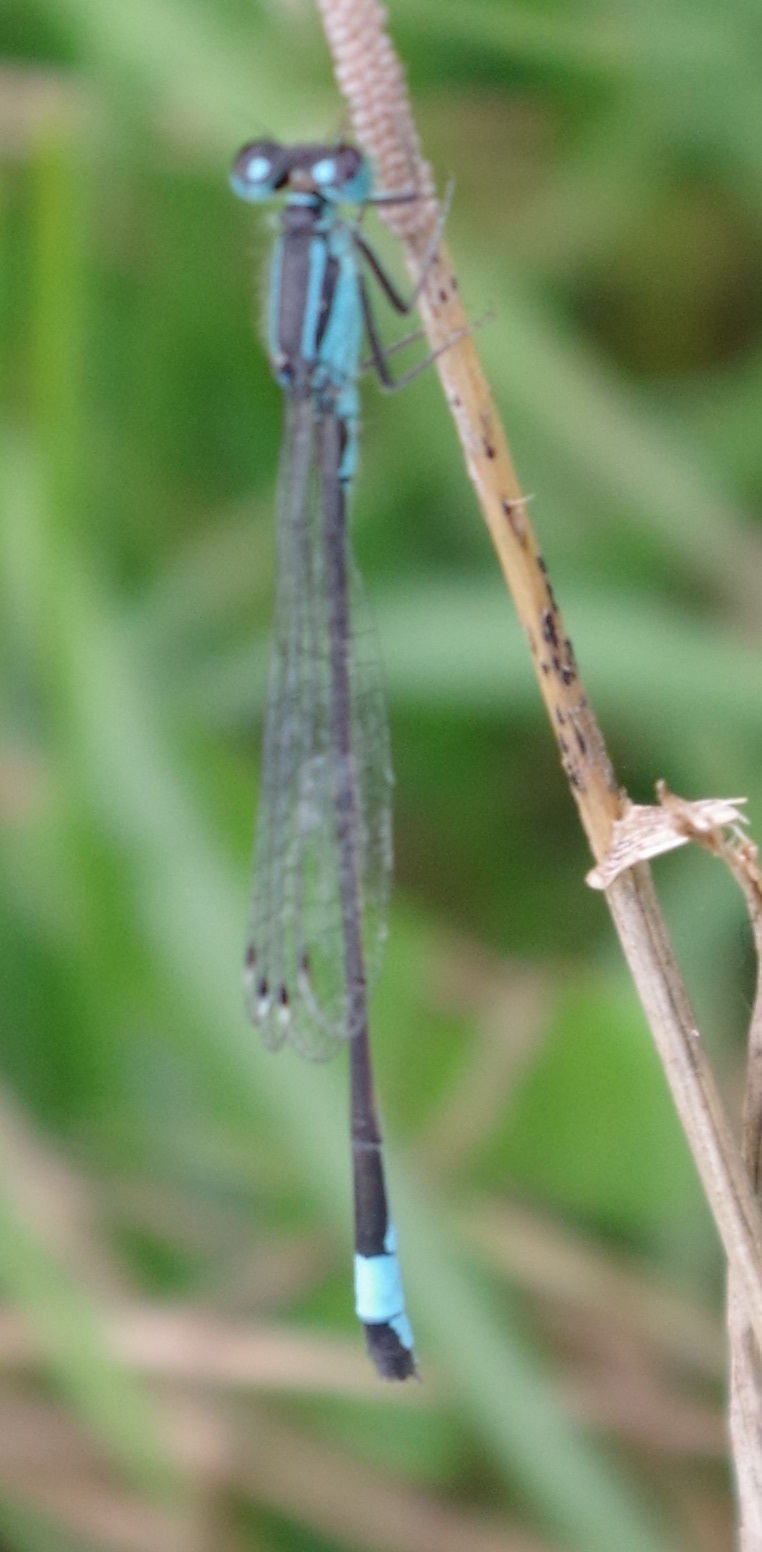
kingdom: Animalia
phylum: Arthropoda
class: Insecta
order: Odonata
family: Coenagrionidae
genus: Ischnura
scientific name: Ischnura elegans
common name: Blue-tailed damselfly
